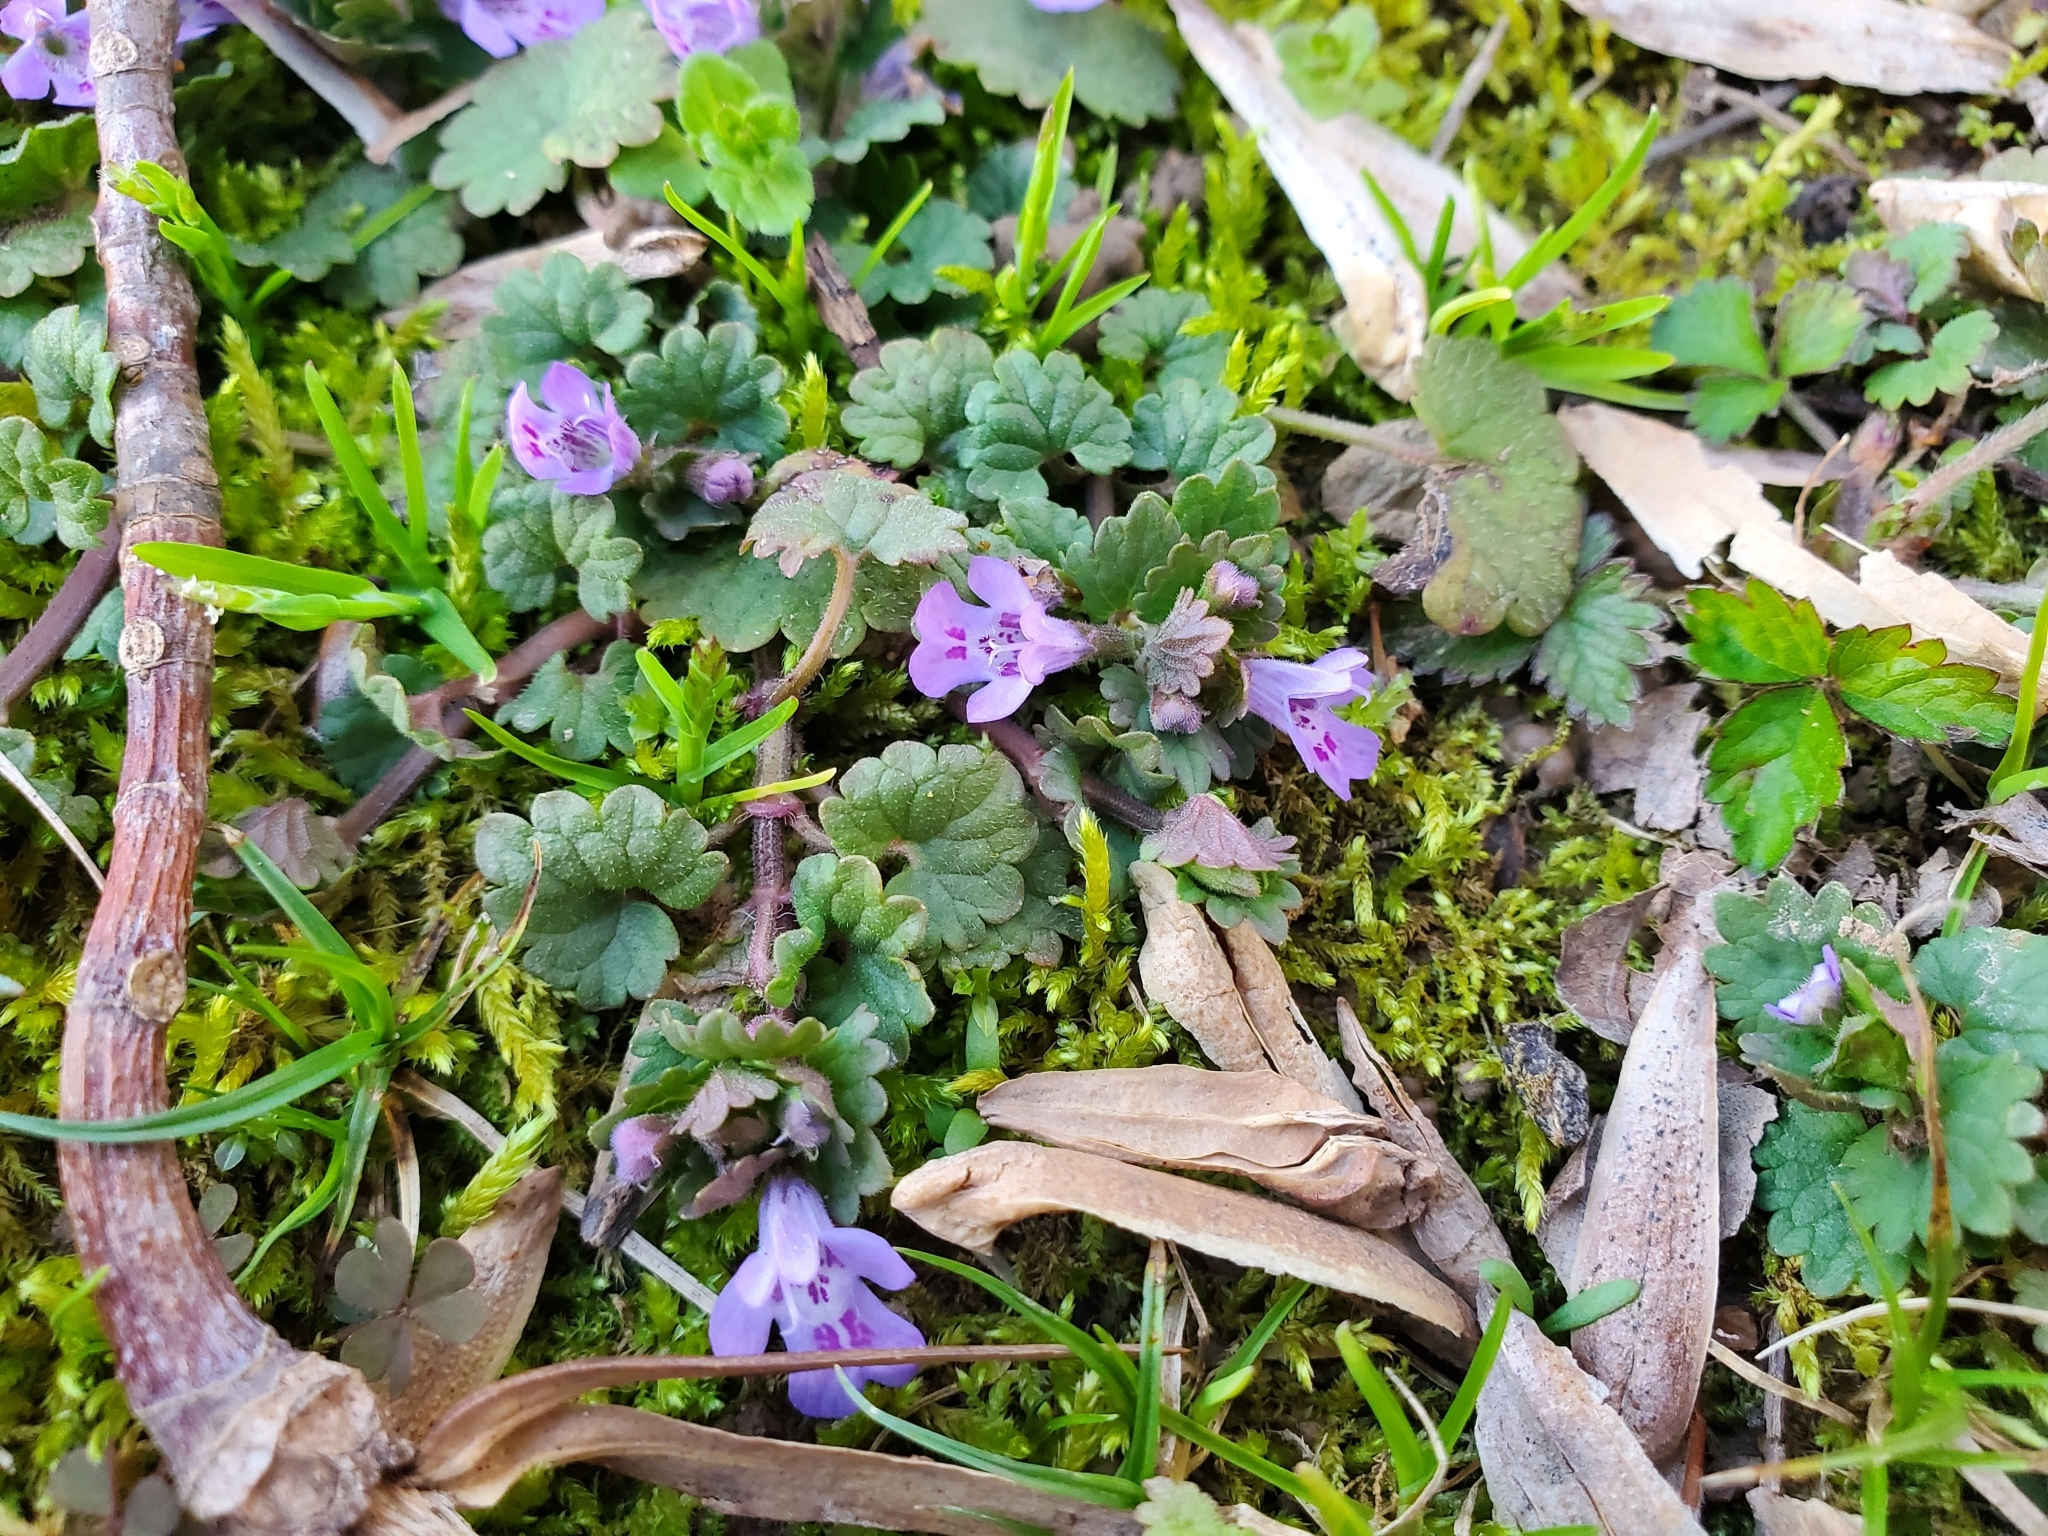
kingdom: Plantae
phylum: Tracheophyta
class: Magnoliopsida
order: Lamiales
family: Lamiaceae
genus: Glechoma
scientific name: Glechoma hederacea
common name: Ground ivy
